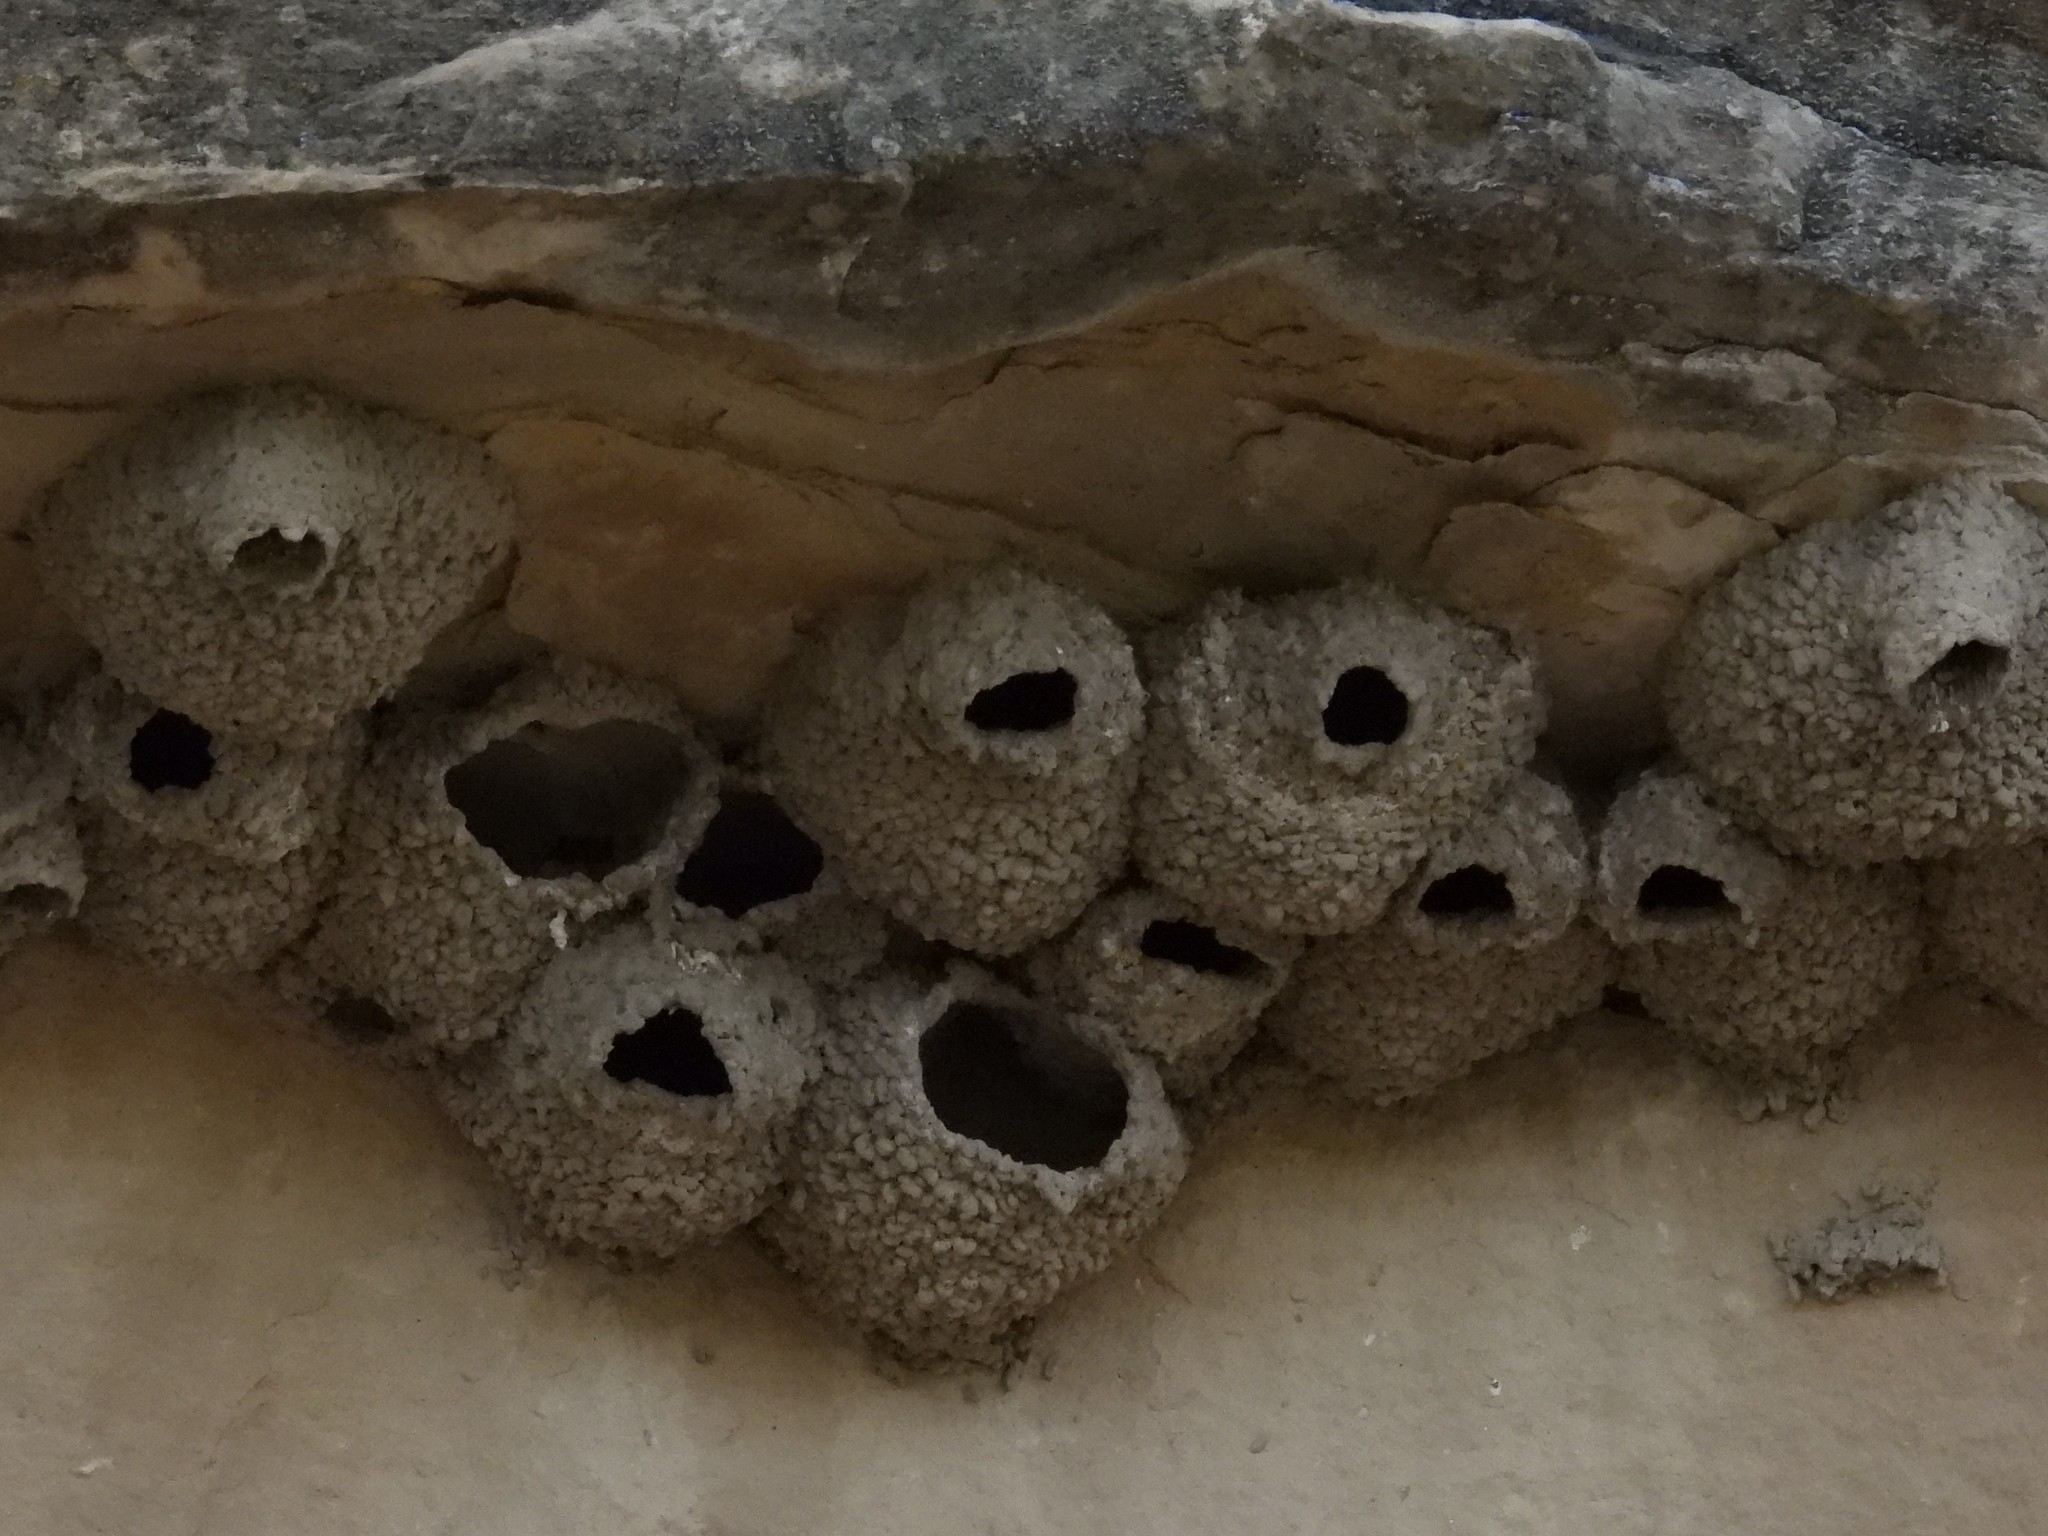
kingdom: Animalia
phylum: Chordata
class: Aves
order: Passeriformes
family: Hirundinidae
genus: Petrochelidon
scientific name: Petrochelidon pyrrhonota
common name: American cliff swallow
